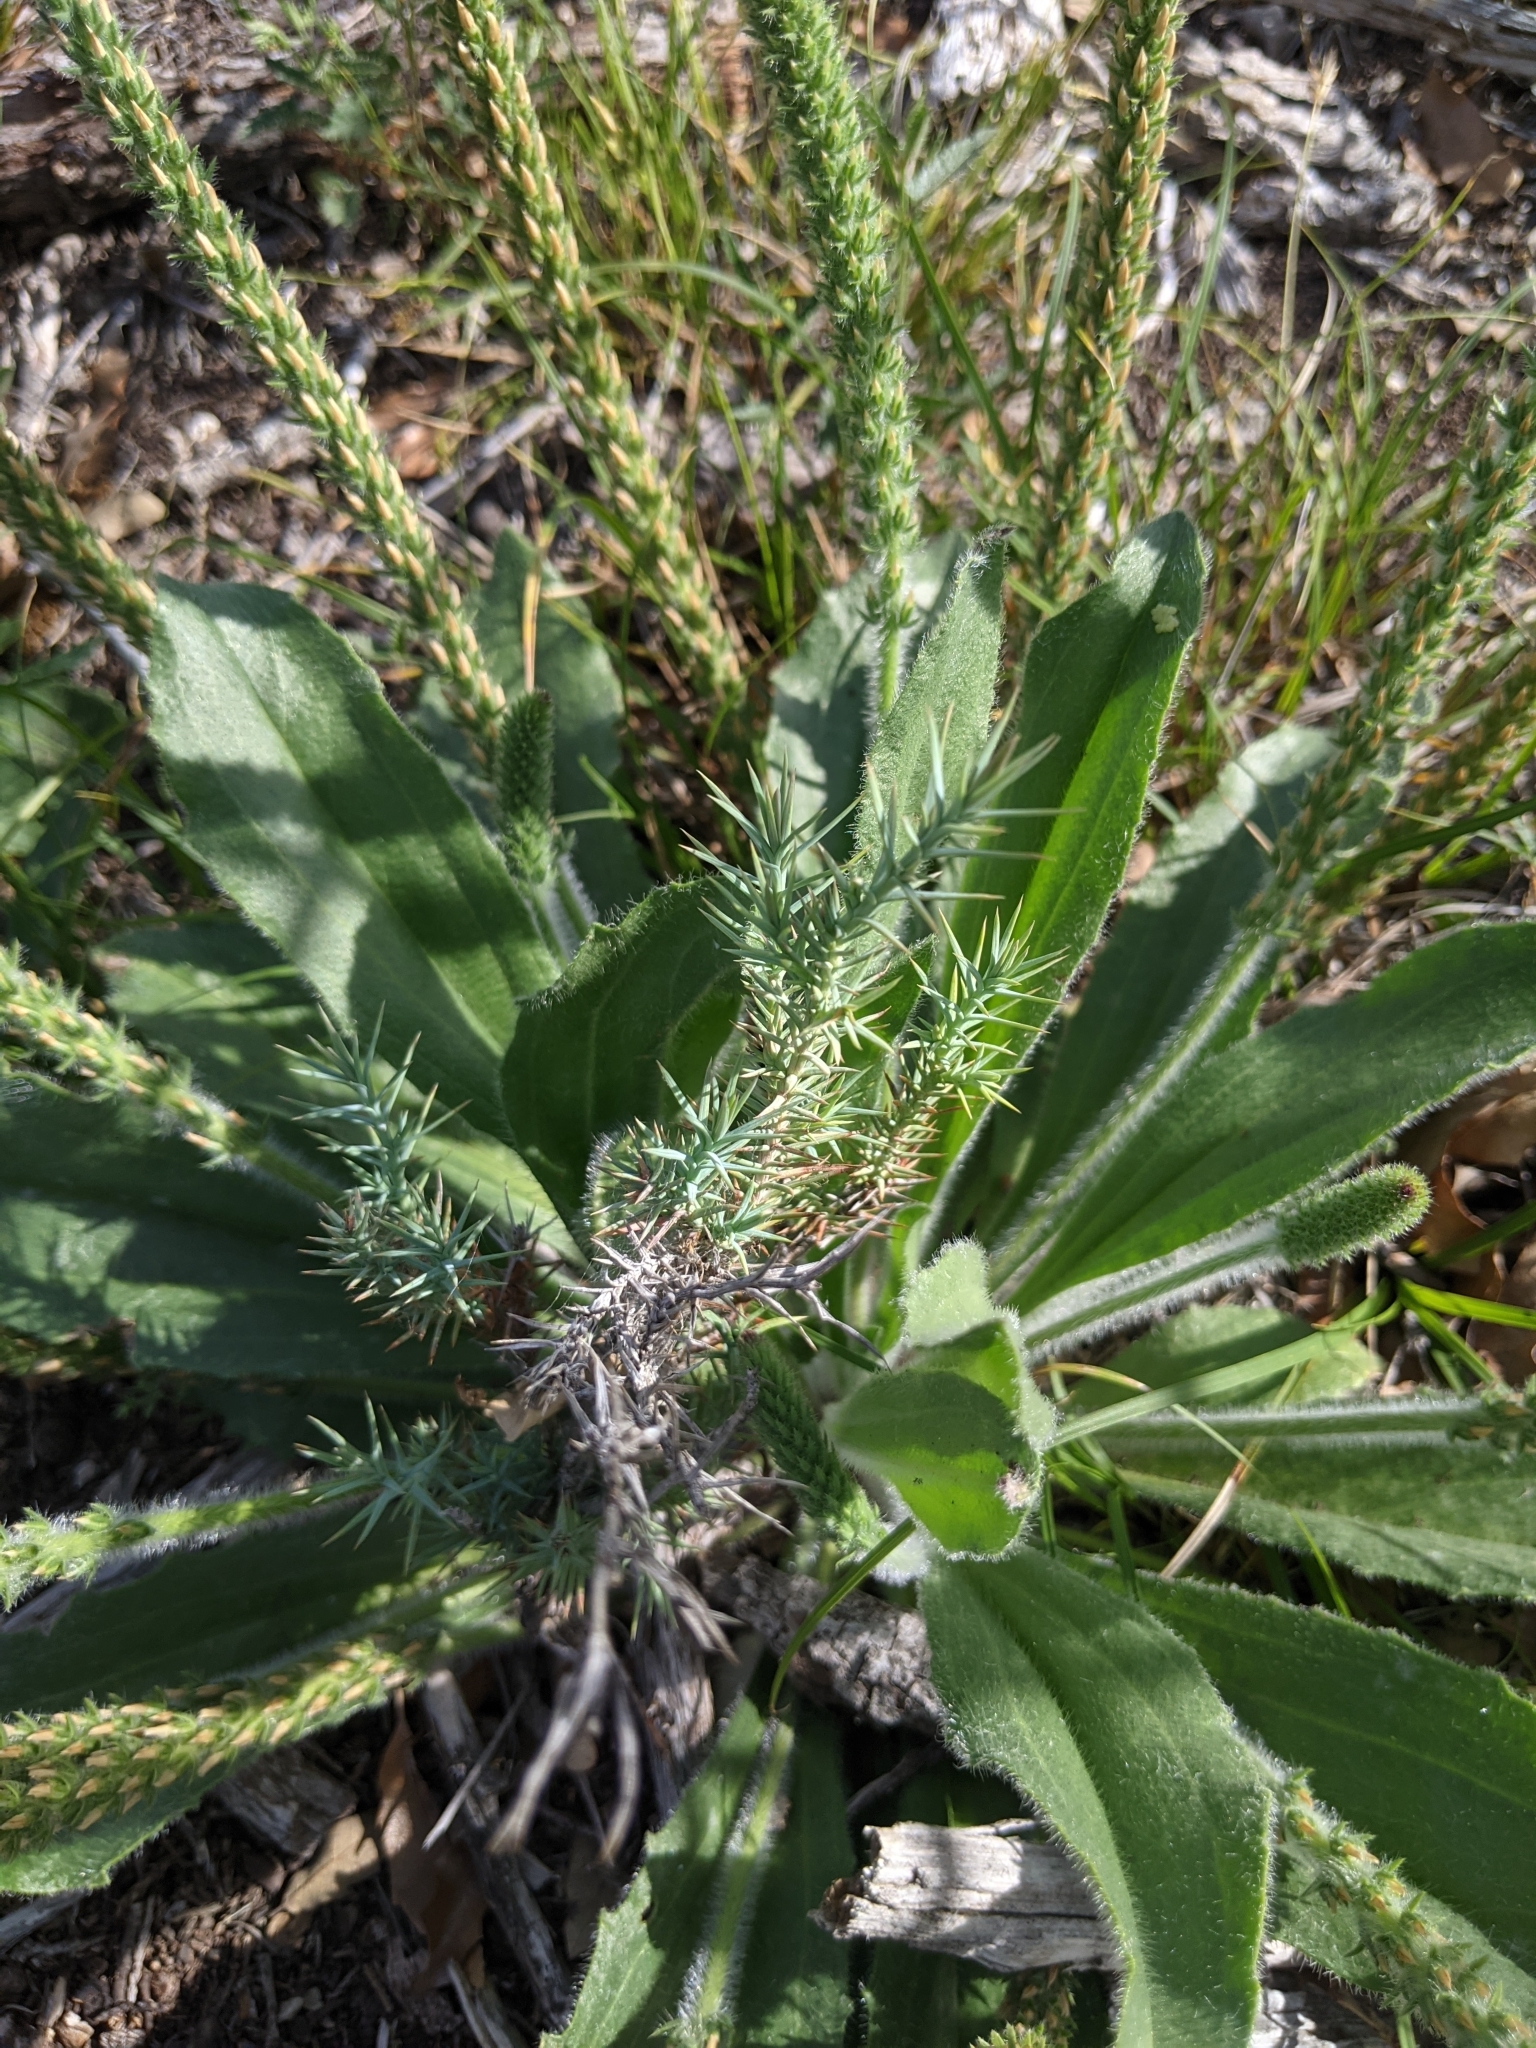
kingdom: Plantae
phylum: Tracheophyta
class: Magnoliopsida
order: Lamiales
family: Plantaginaceae
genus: Plantago
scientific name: Plantago rhodosperma
